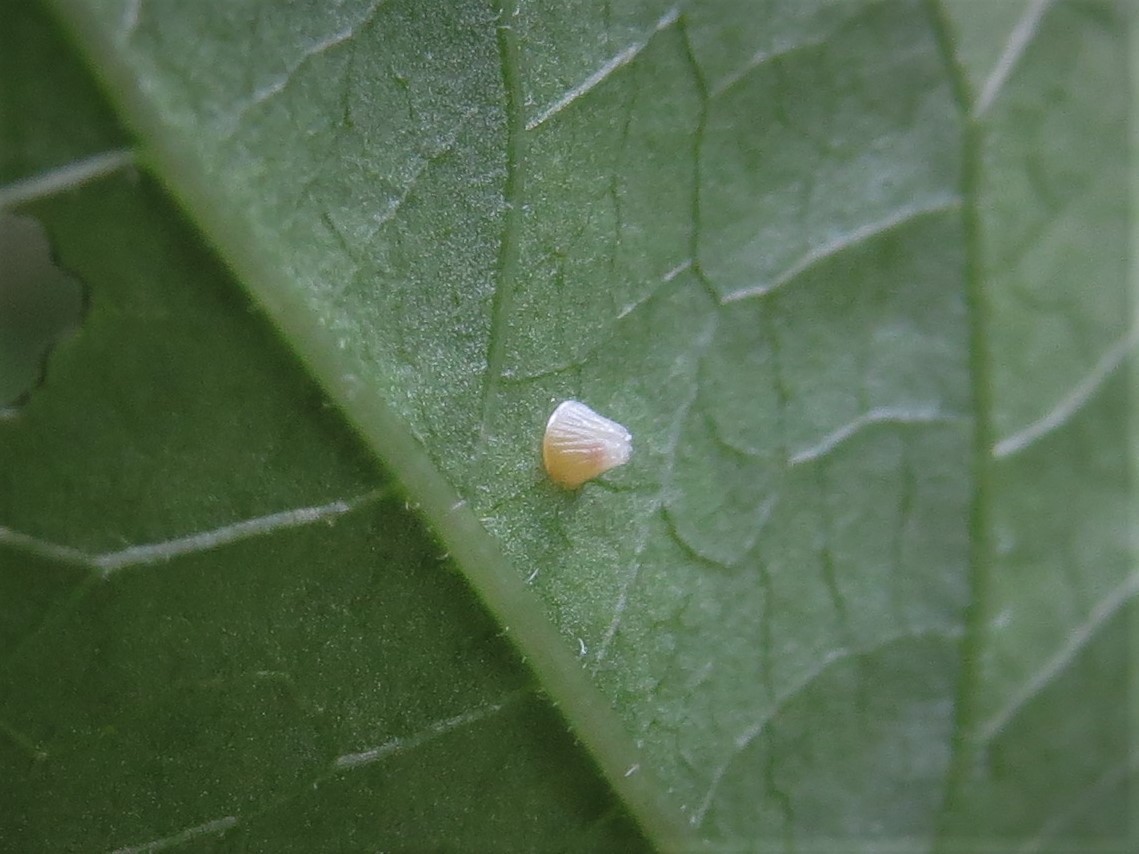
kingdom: Animalia
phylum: Arthropoda
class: Insecta
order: Lepidoptera
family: Nymphalidae
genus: Euptoieta
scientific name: Euptoieta claudia
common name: Variegated fritillary
